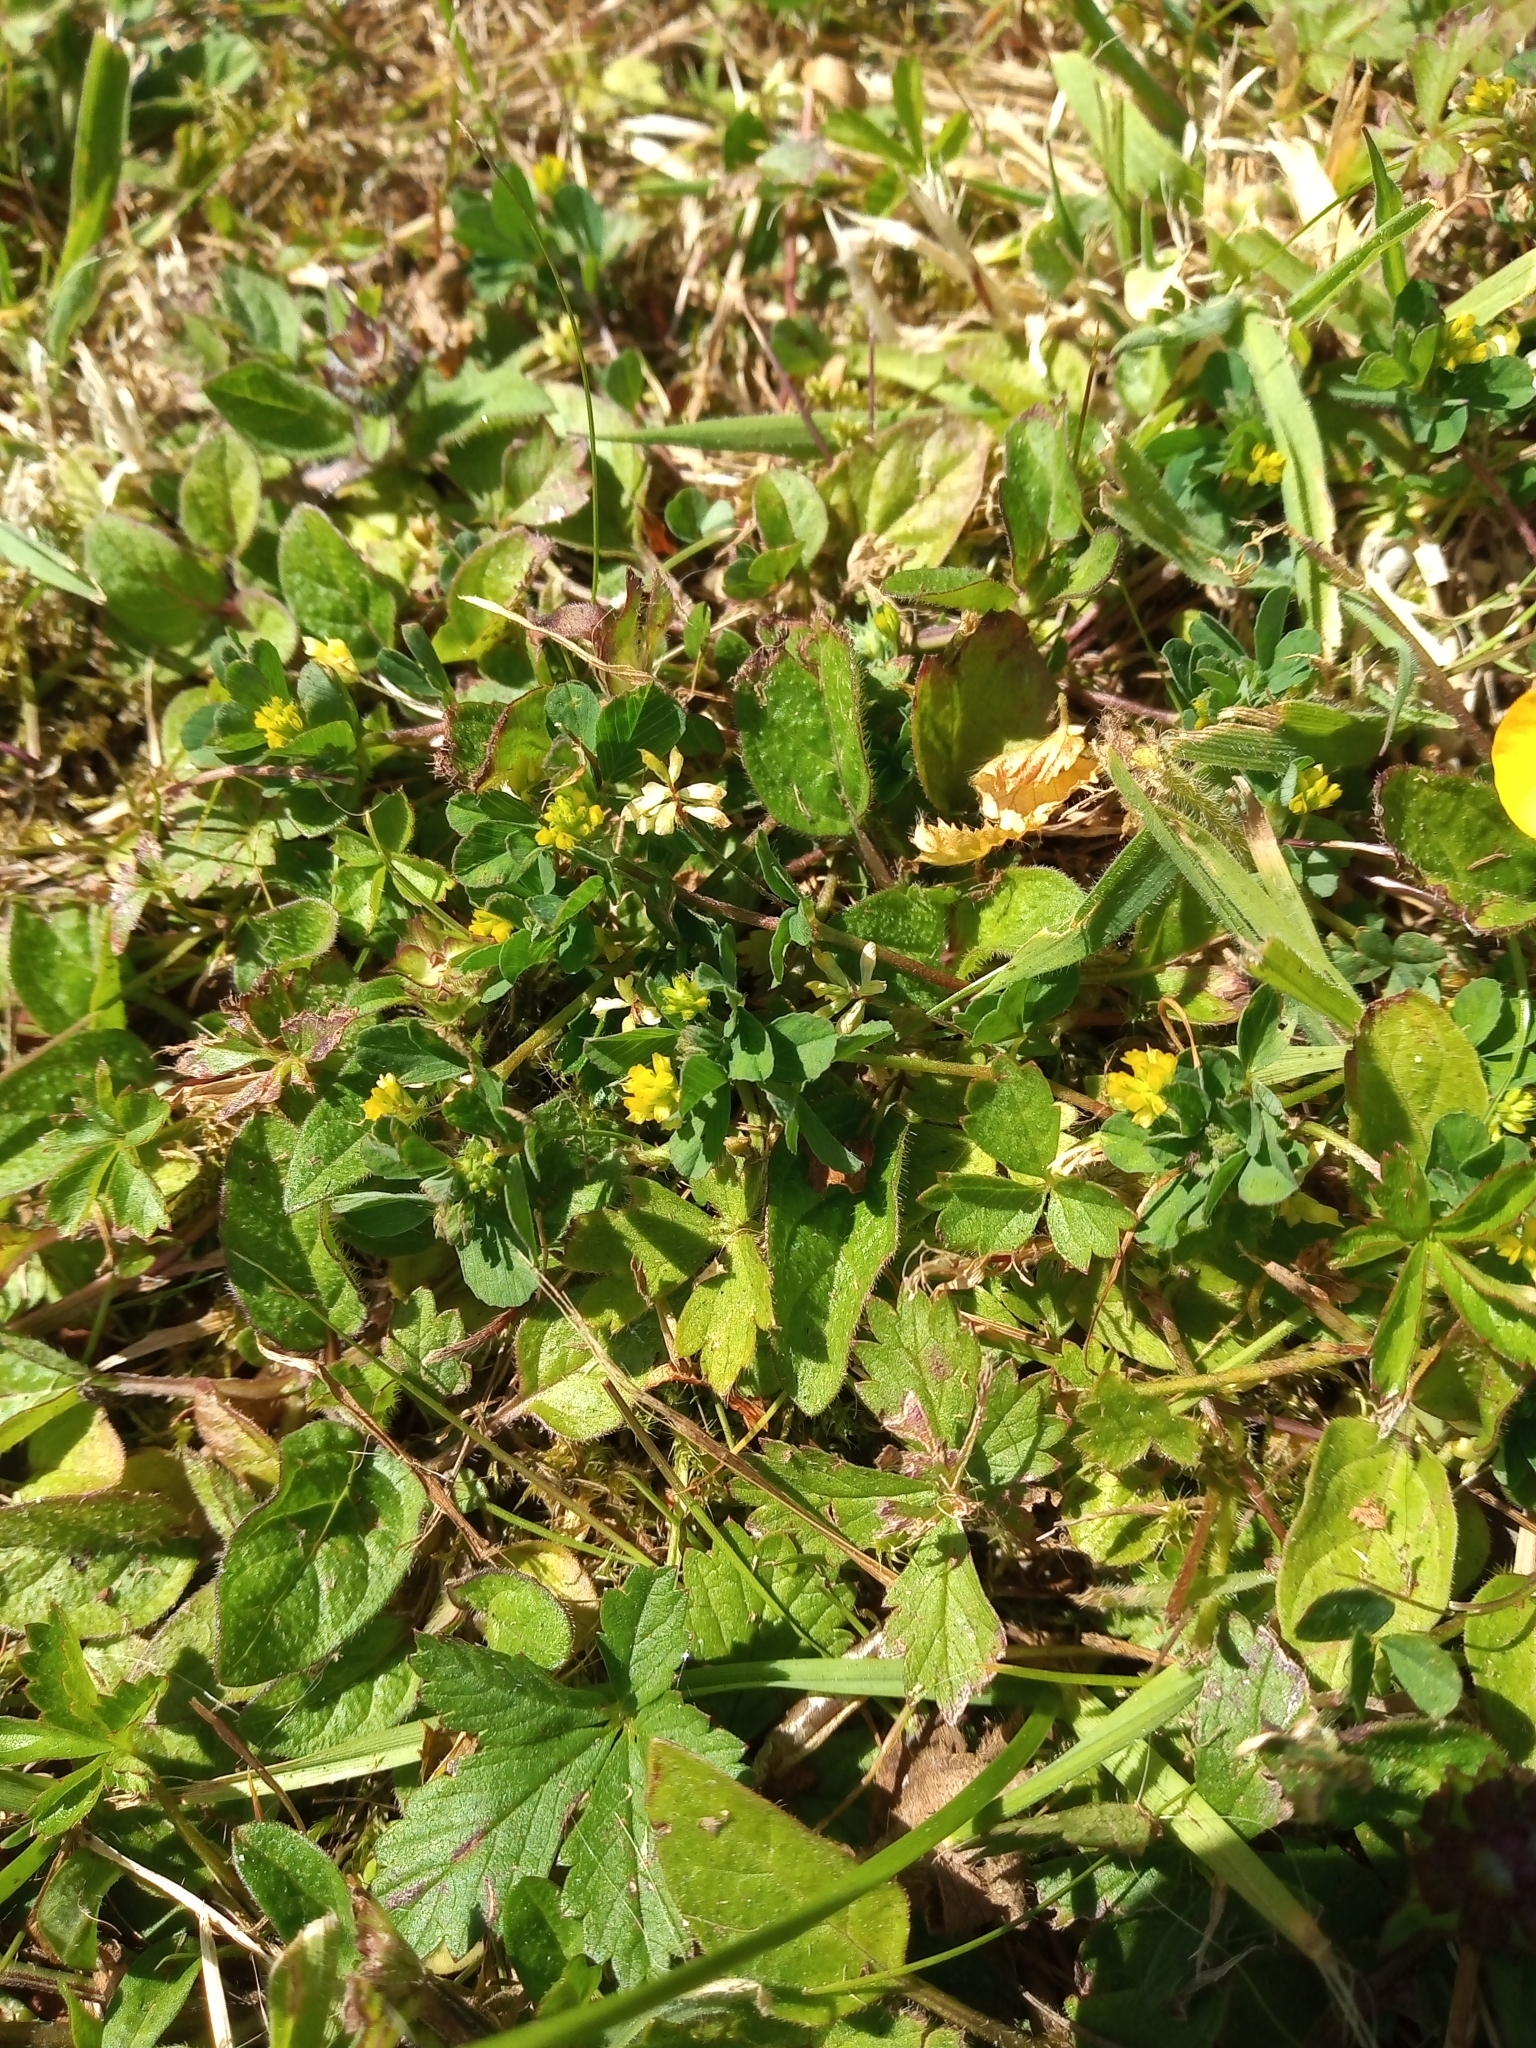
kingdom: Plantae
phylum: Tracheophyta
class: Magnoliopsida
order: Fabales
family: Fabaceae
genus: Trifolium
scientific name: Trifolium dubium
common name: Suckling clover
